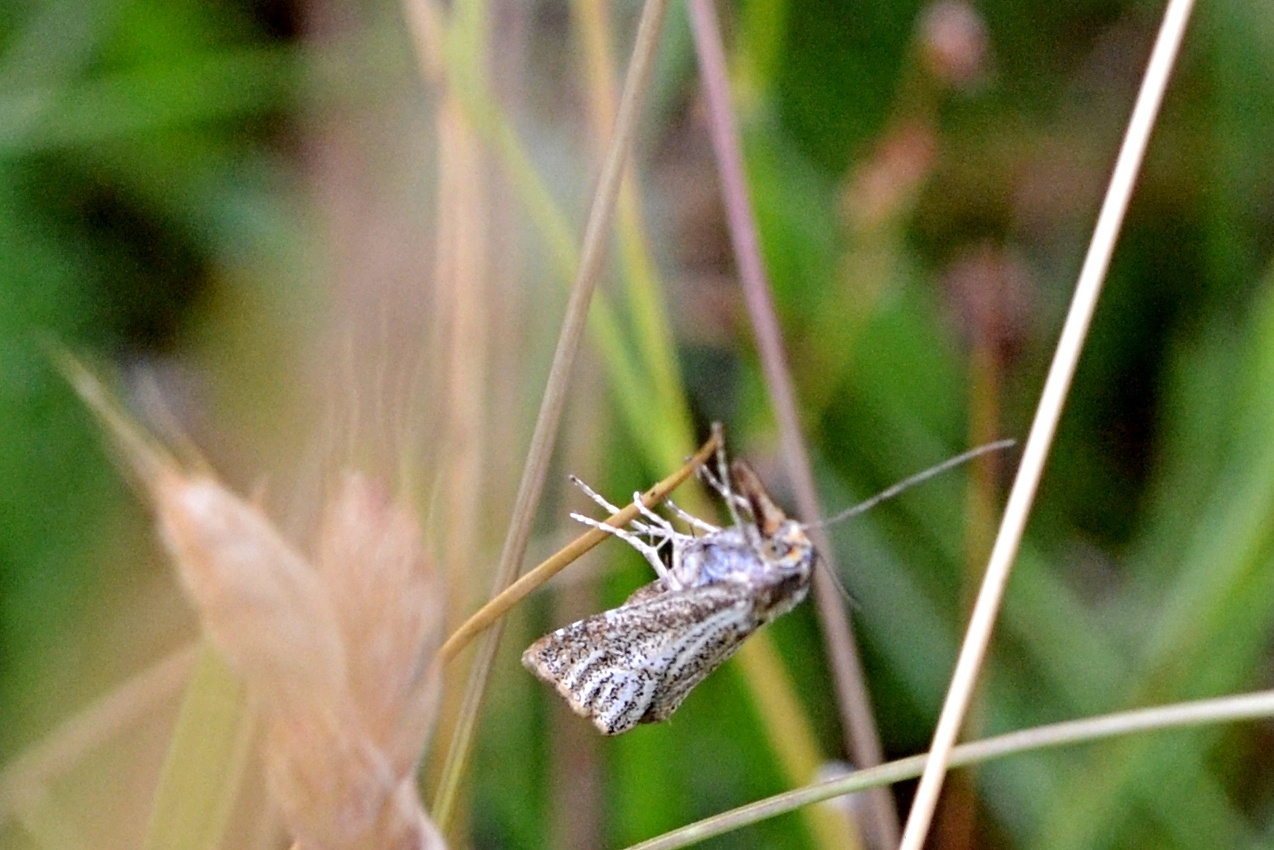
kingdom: Animalia
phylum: Arthropoda
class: Insecta
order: Lepidoptera
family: Crambidae
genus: Thisanotia
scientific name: Thisanotia chrysonuchella
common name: Powdered grass-veneer
